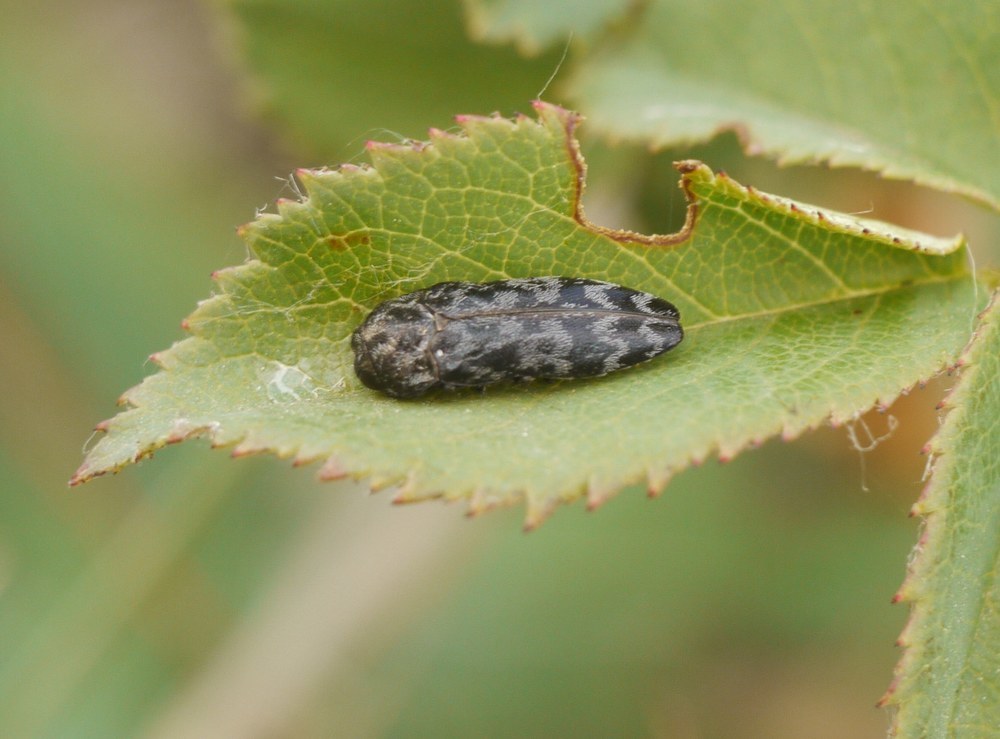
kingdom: Animalia
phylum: Arthropoda
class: Insecta
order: Coleoptera
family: Buprestidae
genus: Coraebus
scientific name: Coraebus rubi
